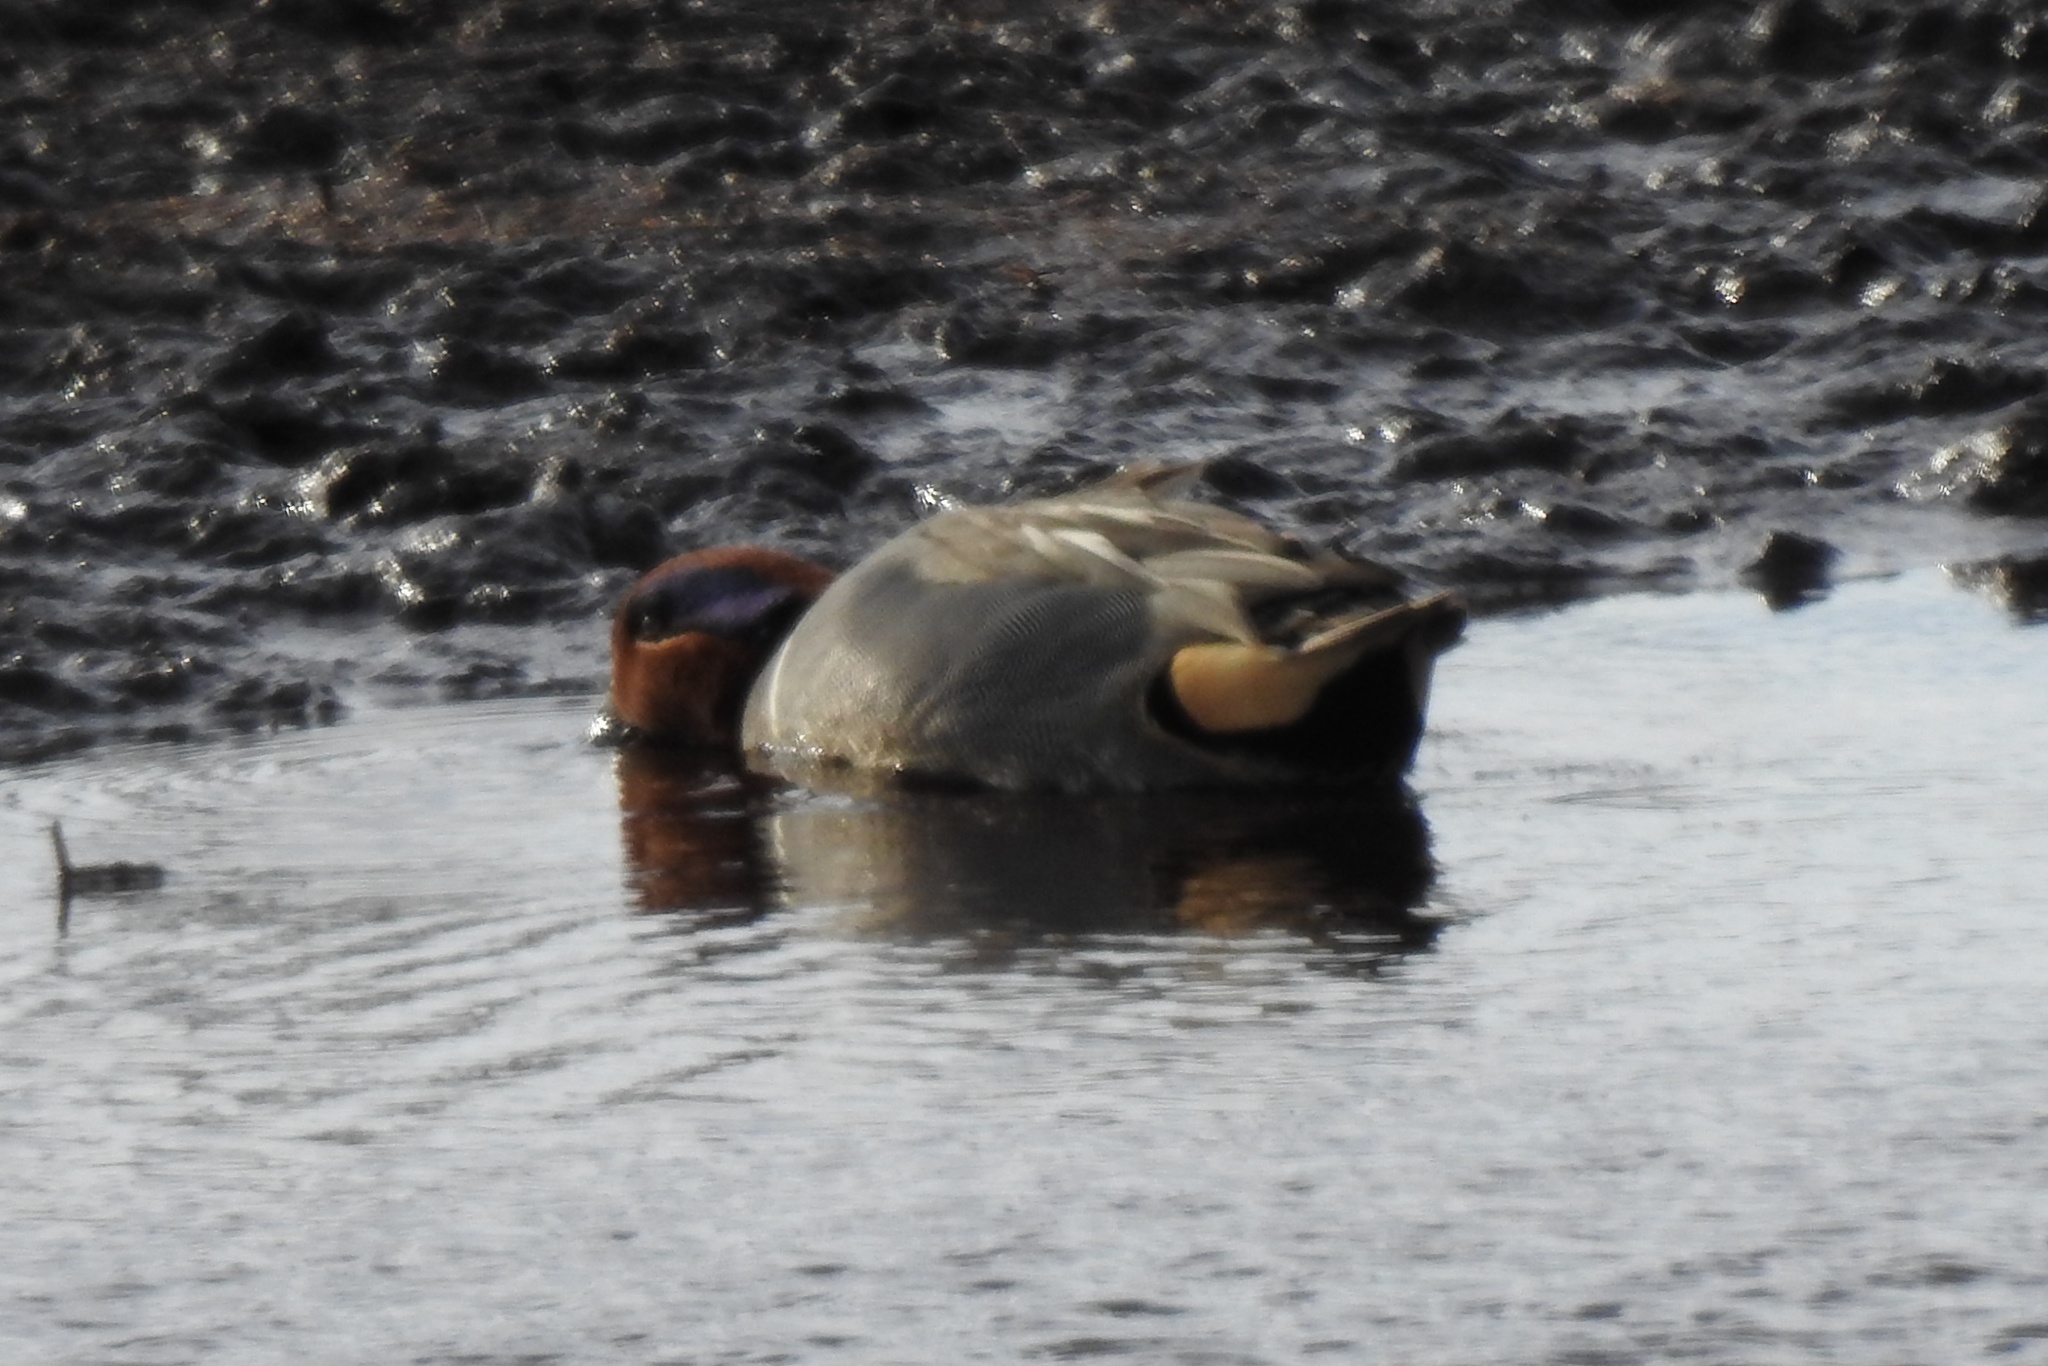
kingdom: Animalia
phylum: Chordata
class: Aves
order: Anseriformes
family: Anatidae
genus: Anas
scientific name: Anas crecca
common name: Eurasian teal
